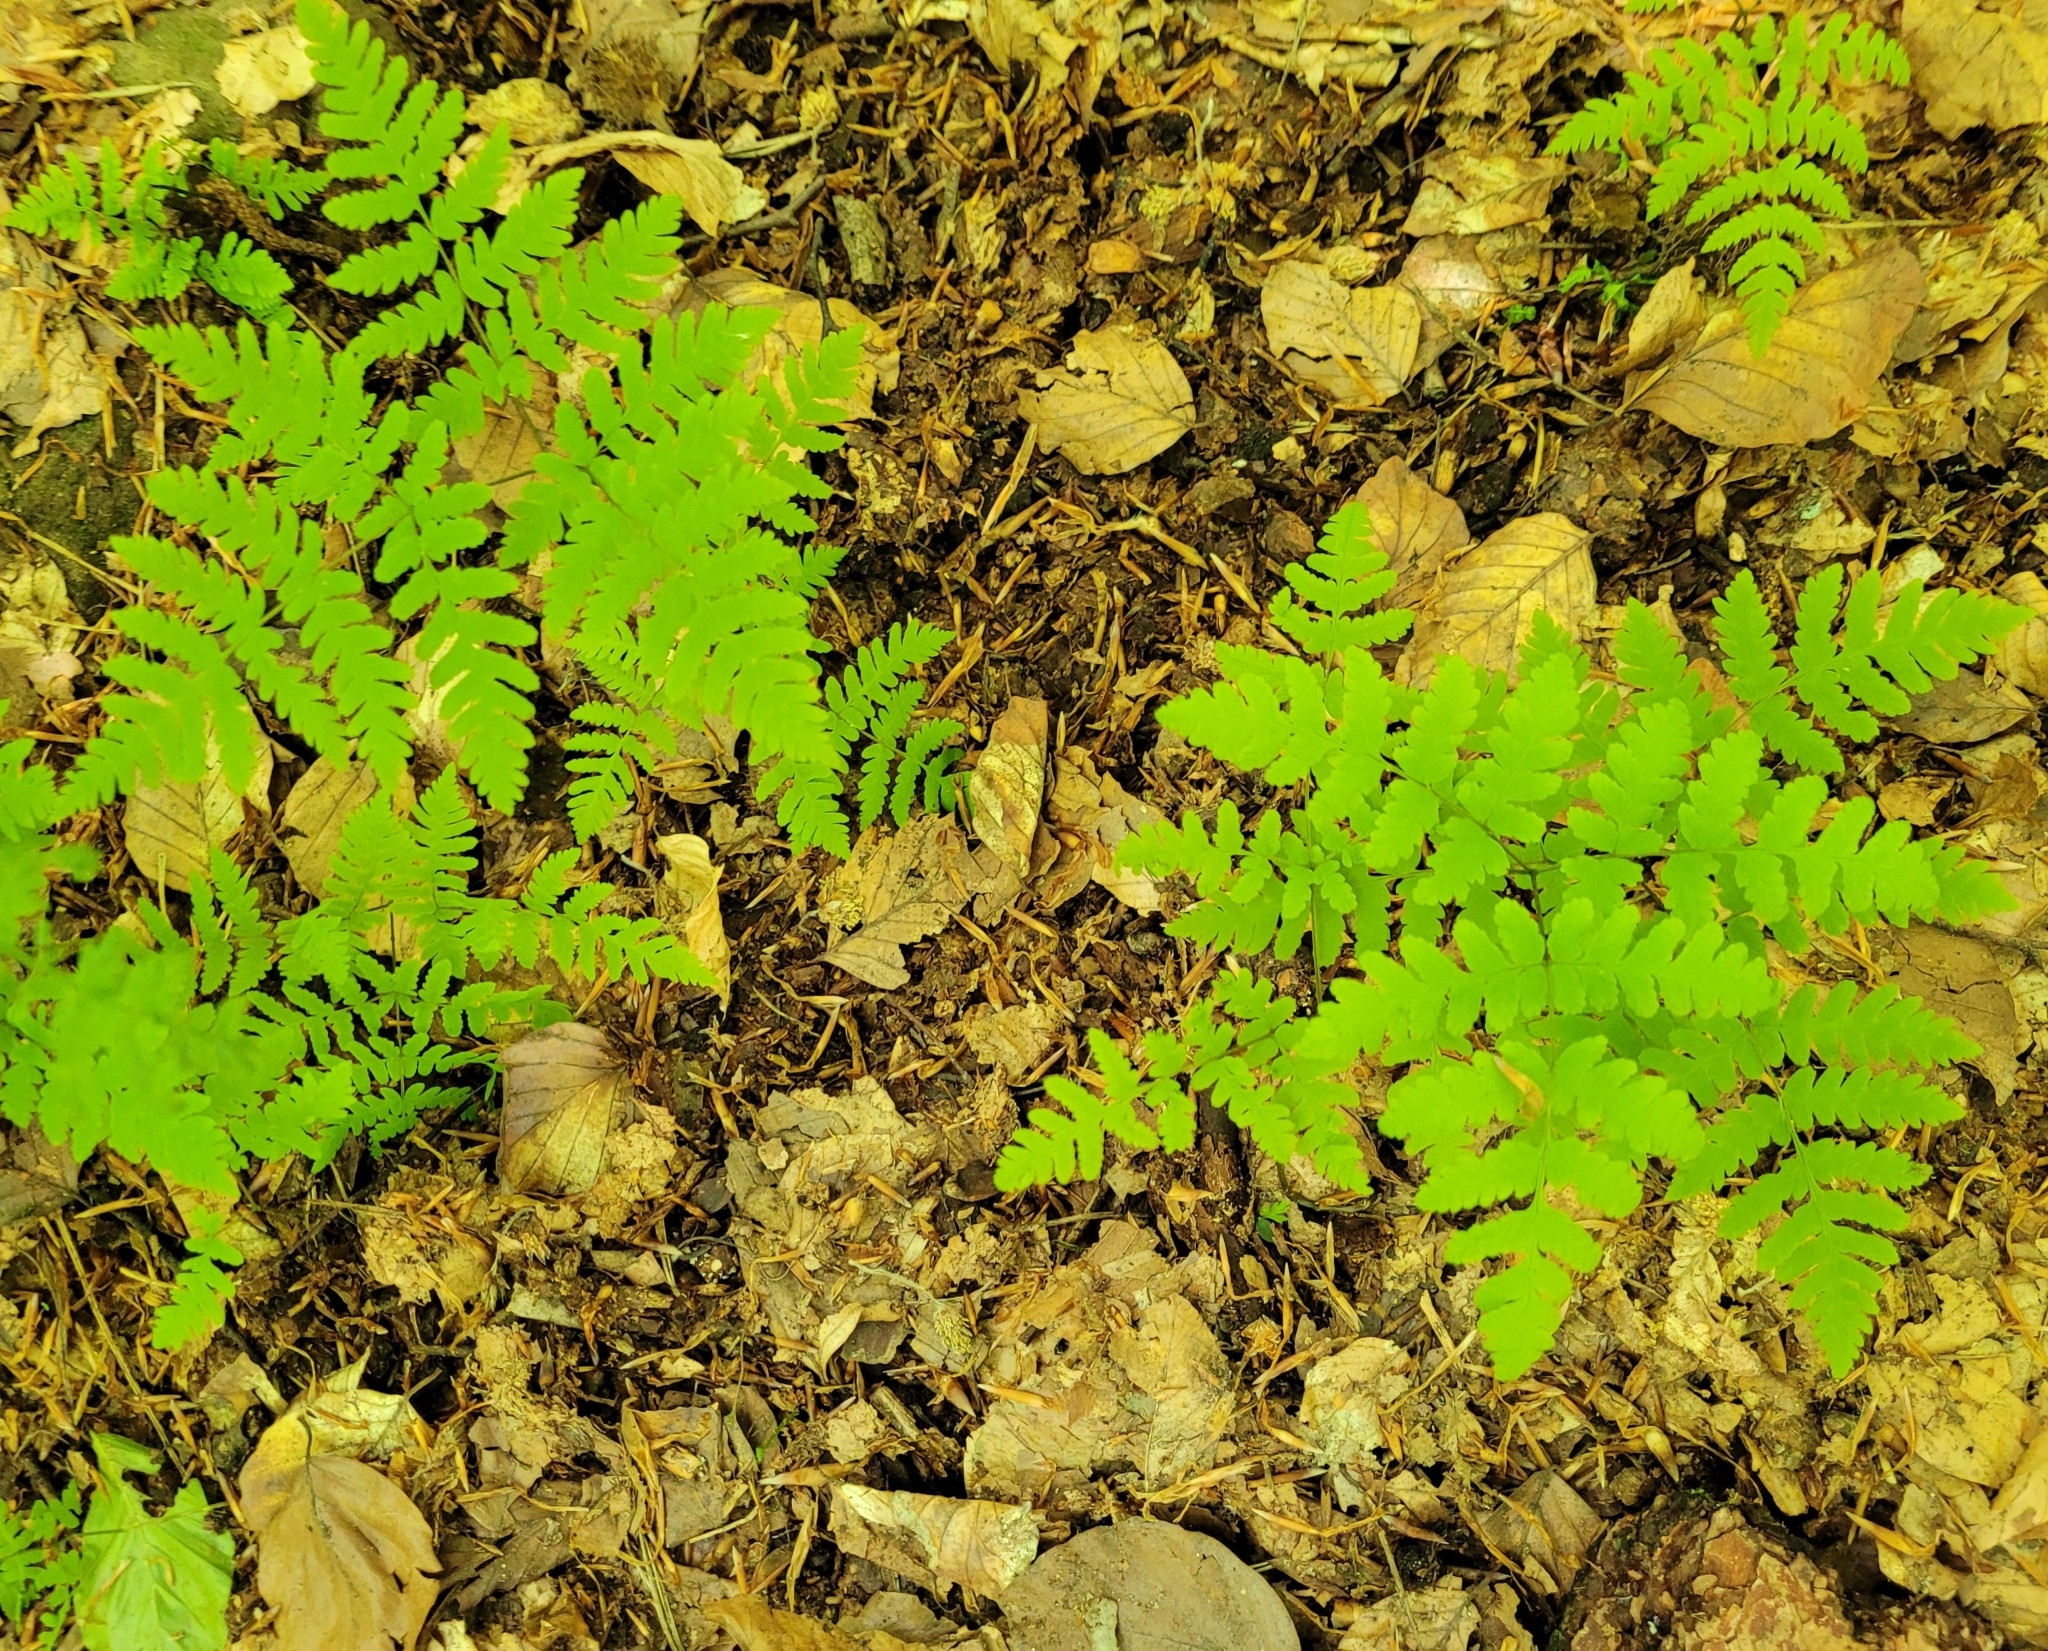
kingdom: Plantae
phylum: Tracheophyta
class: Polypodiopsida
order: Polypodiales
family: Cystopteridaceae
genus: Gymnocarpium
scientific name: Gymnocarpium dryopteris
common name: Oak fern
